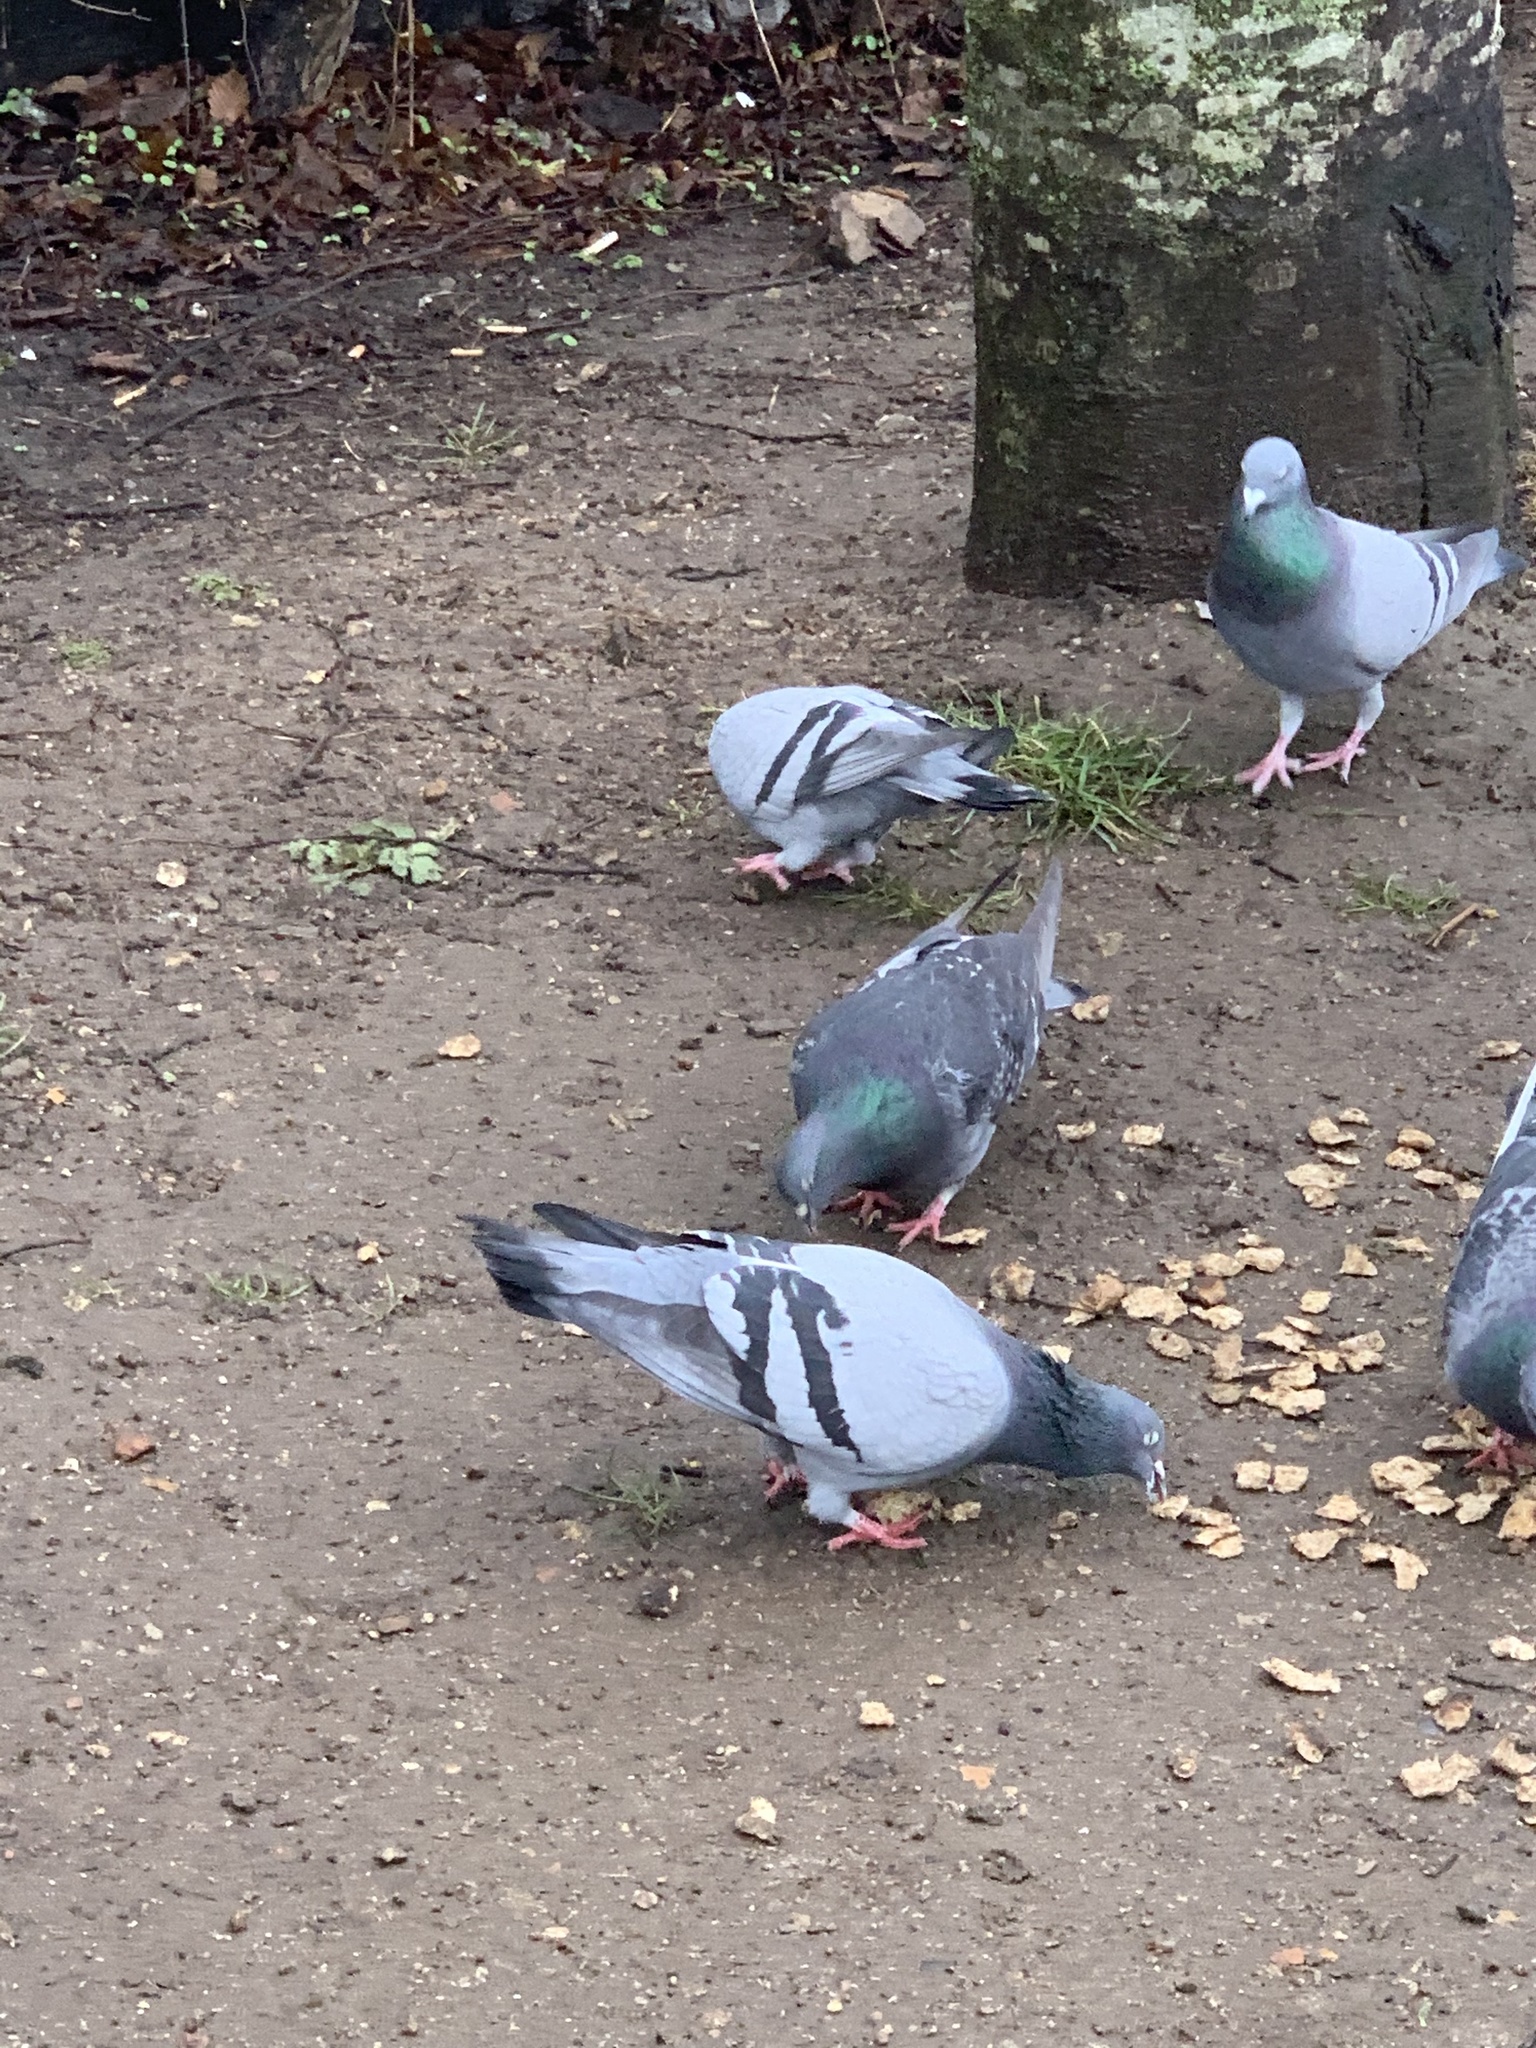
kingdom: Animalia
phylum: Chordata
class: Aves
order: Columbiformes
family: Columbidae
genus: Columba
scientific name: Columba livia
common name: Rock pigeon
